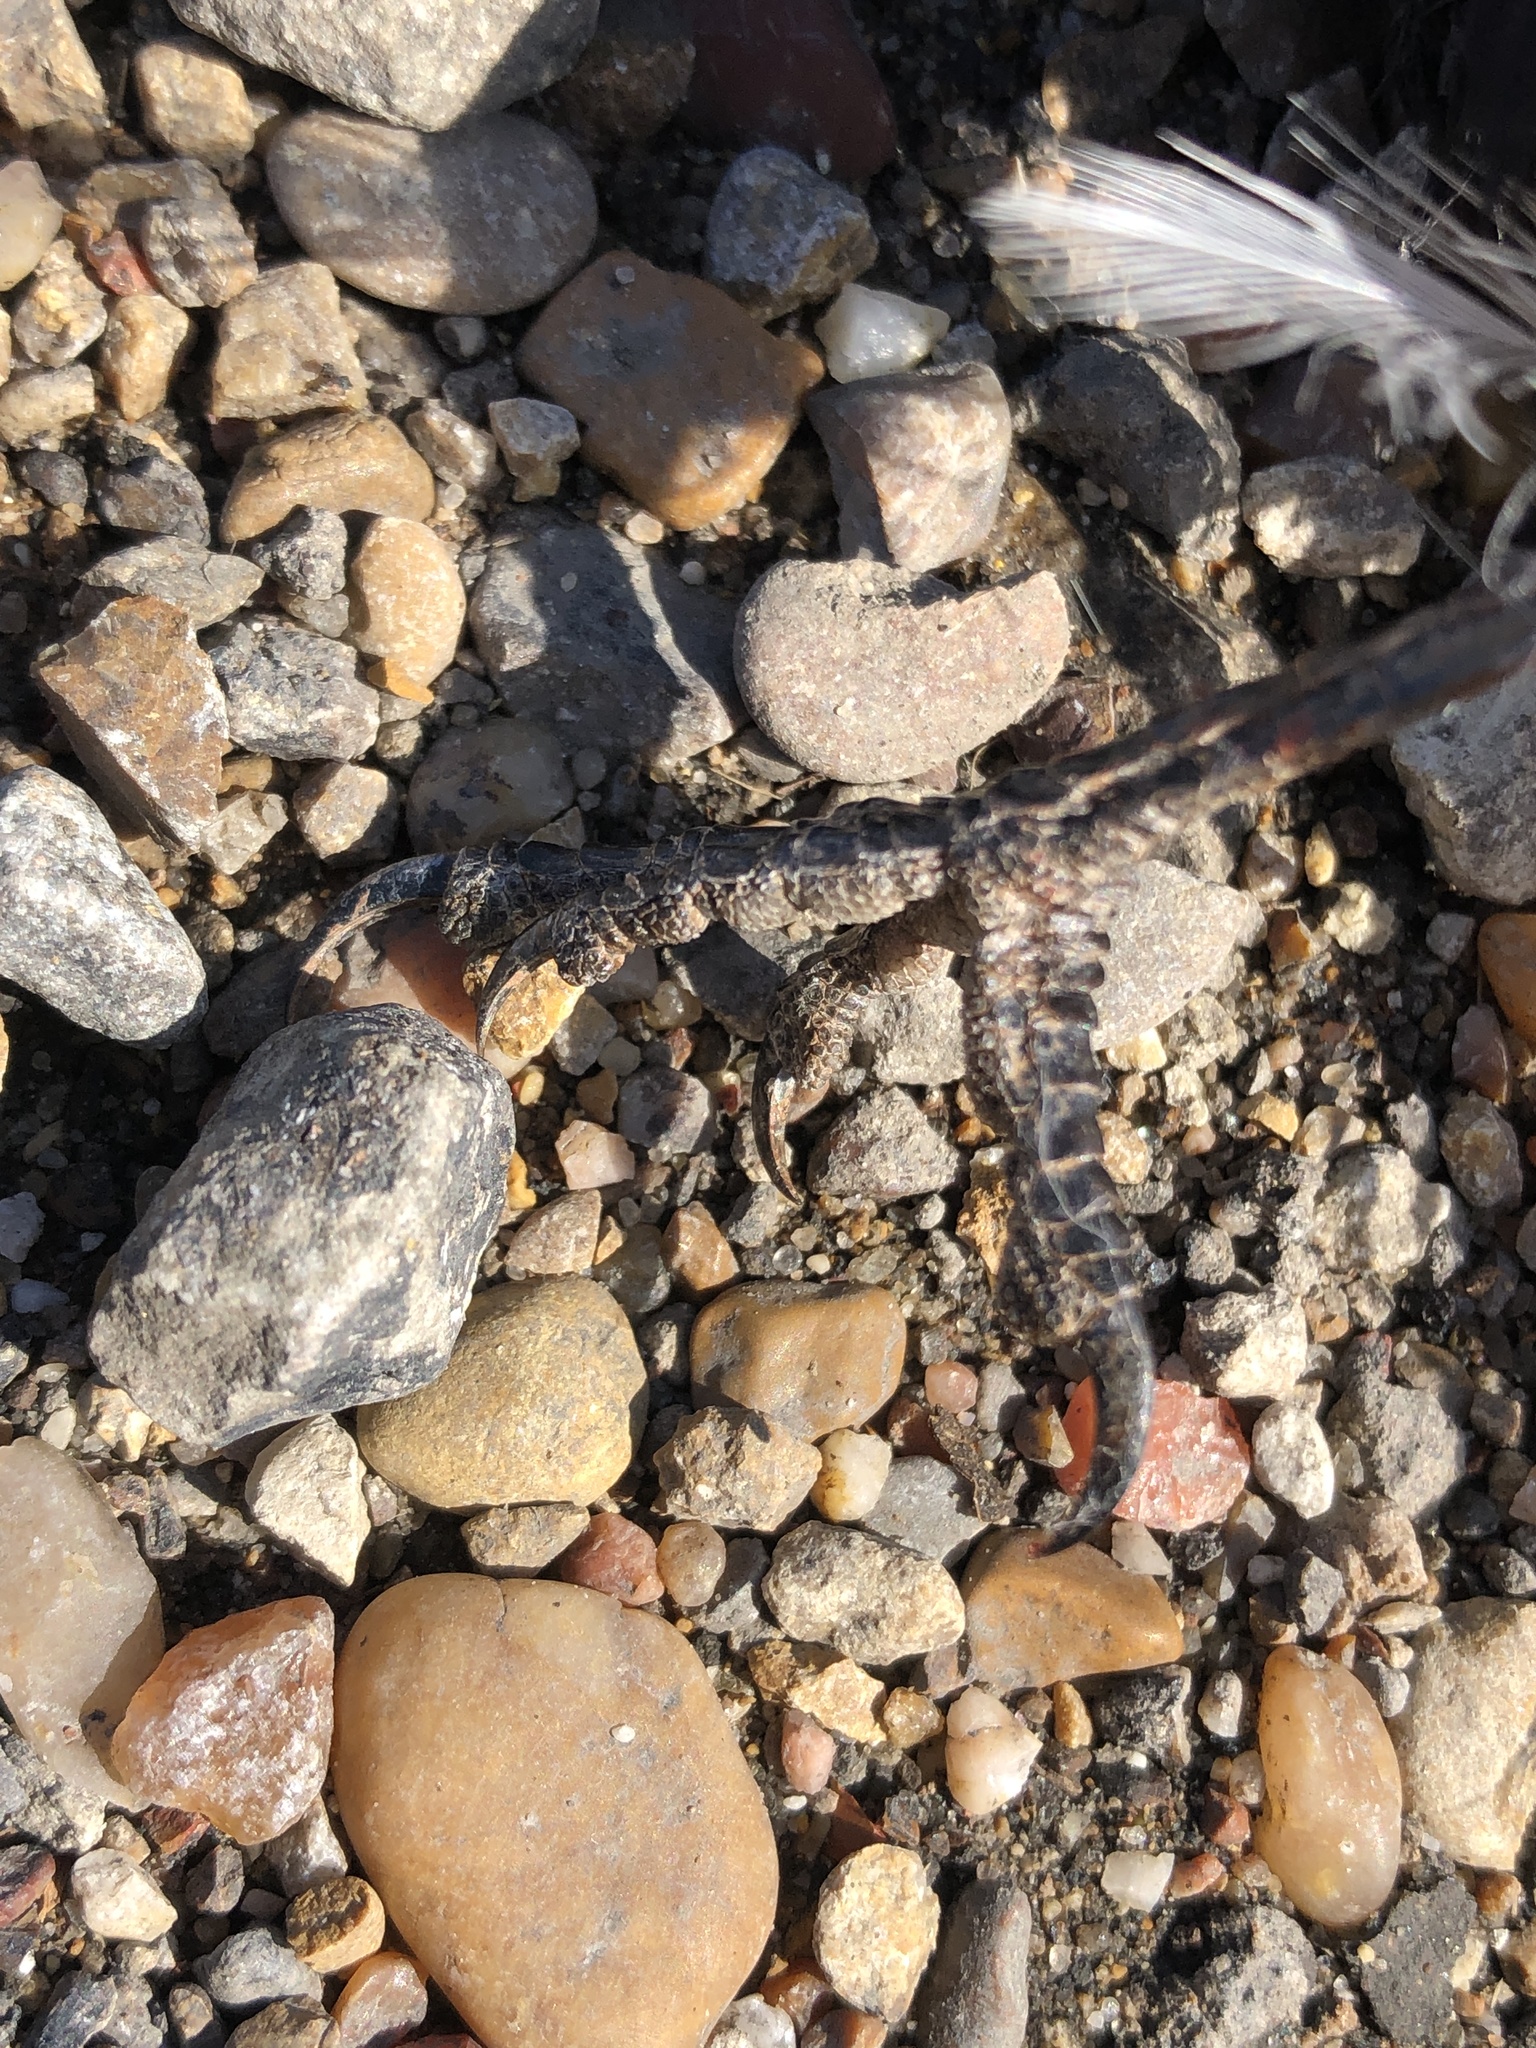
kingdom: Animalia
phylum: Chordata
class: Aves
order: Passeriformes
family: Laniidae
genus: Lanius
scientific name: Lanius ludovicianus
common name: Loggerhead shrike
